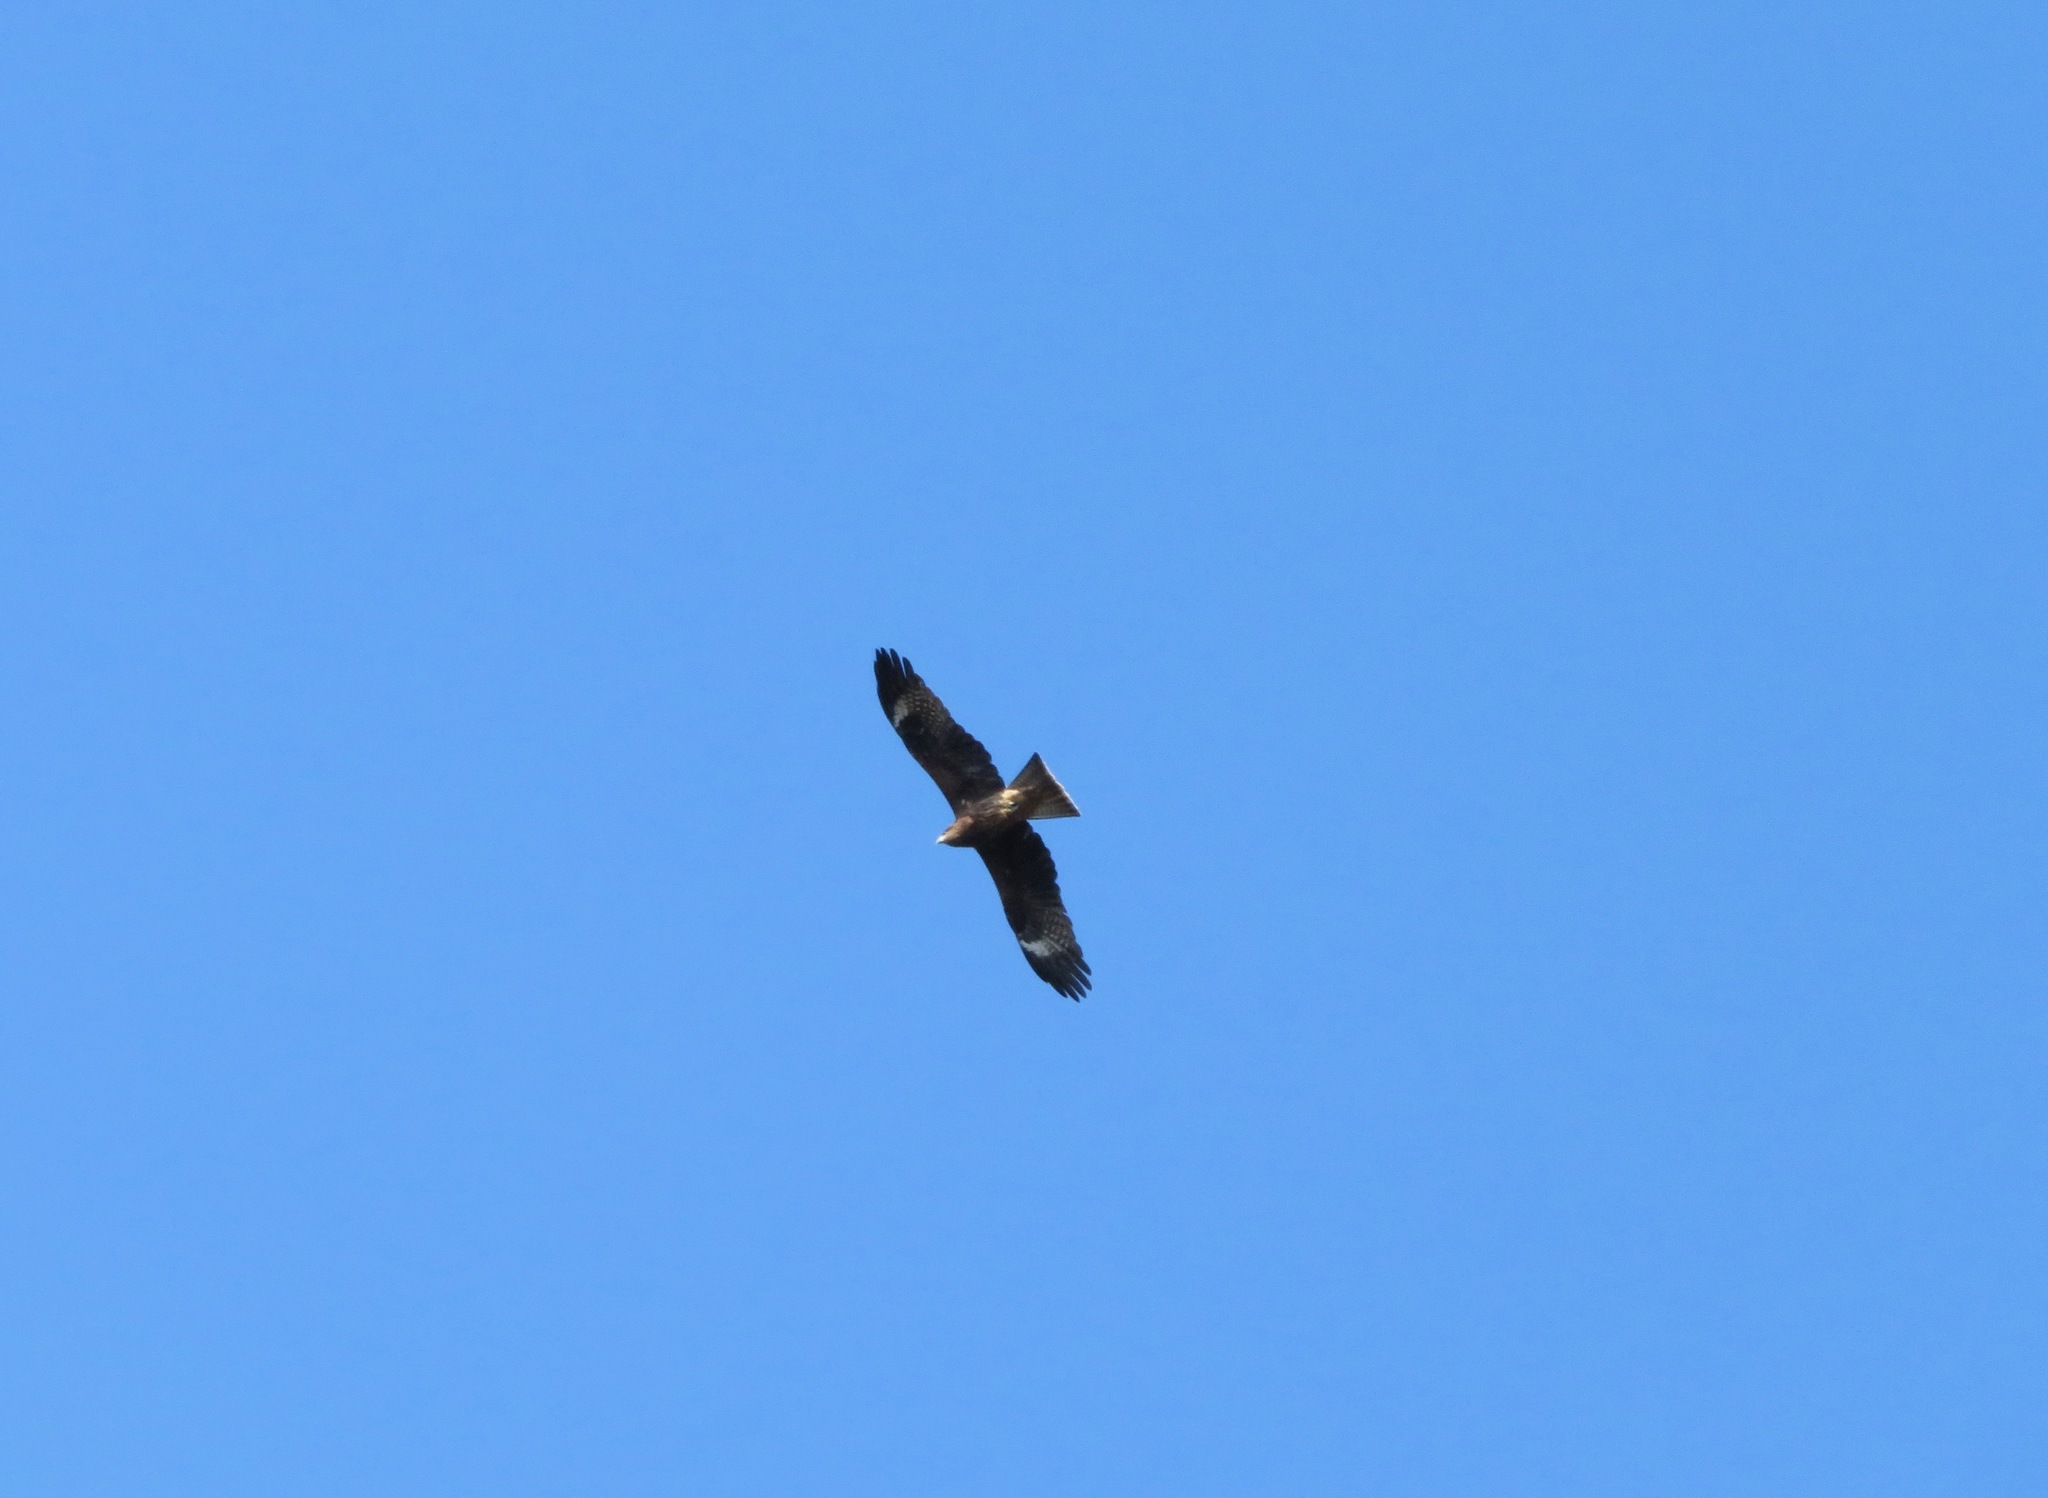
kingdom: Animalia
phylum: Chordata
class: Aves
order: Accipitriformes
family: Accipitridae
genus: Milvus
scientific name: Milvus migrans
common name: Black kite
